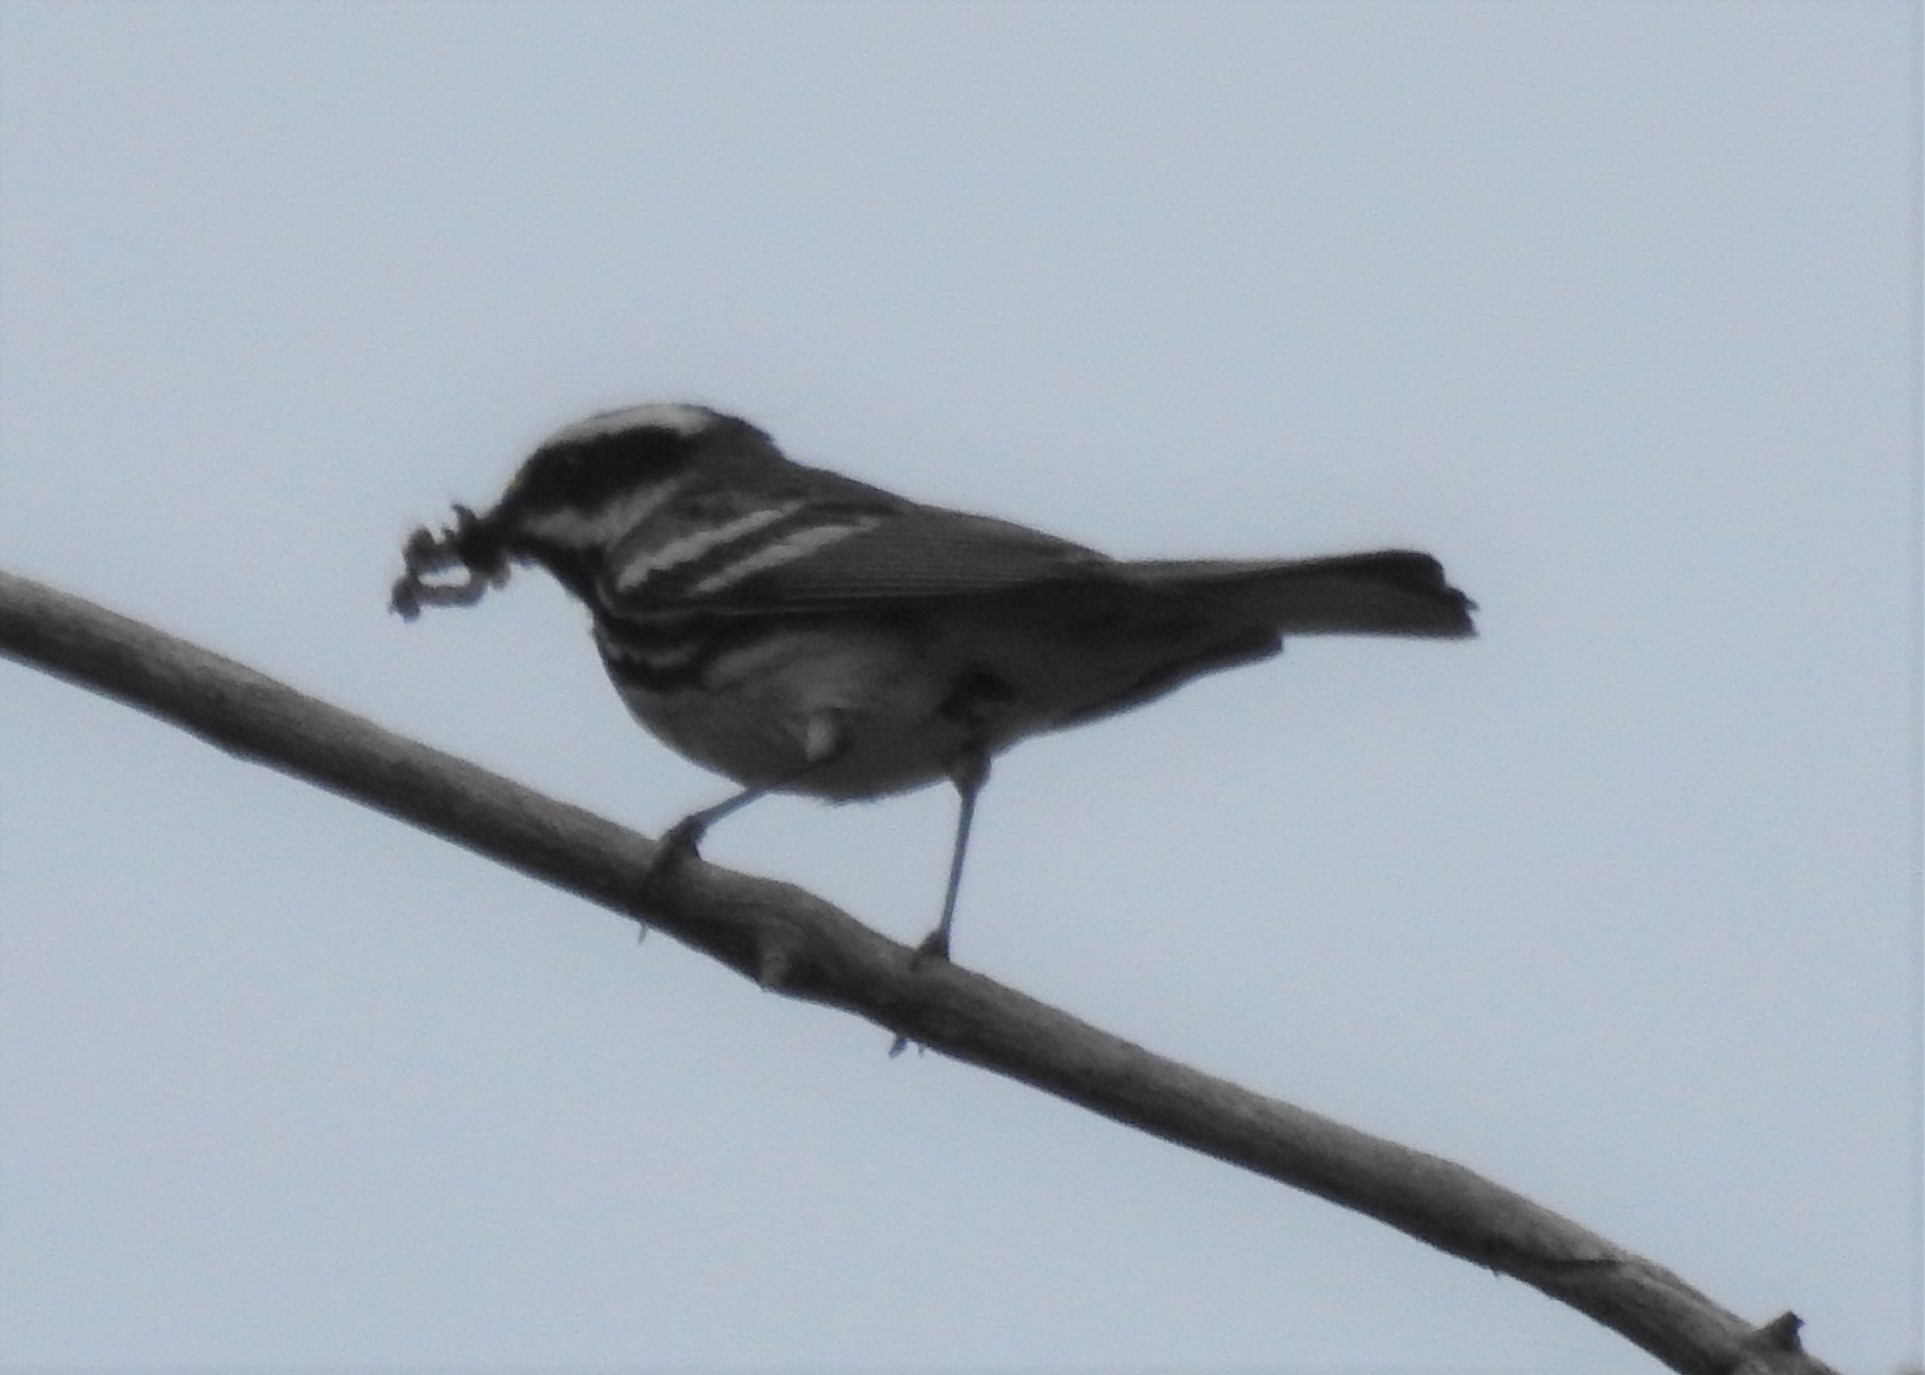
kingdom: Animalia
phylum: Chordata
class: Aves
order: Passeriformes
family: Parulidae
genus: Setophaga
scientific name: Setophaga nigrescens
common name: Black-throated gray warbler
